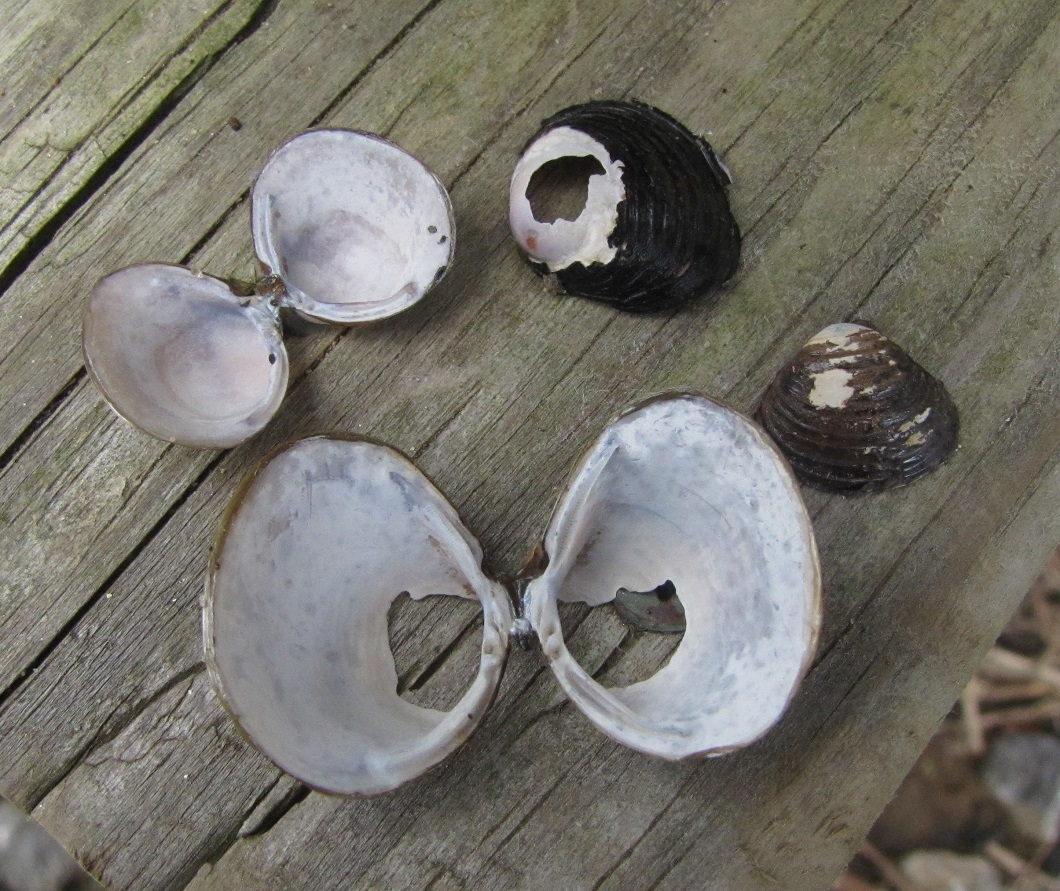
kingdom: Animalia
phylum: Mollusca
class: Bivalvia
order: Venerida
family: Cyrenidae
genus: Corbicula
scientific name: Corbicula fluminea
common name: Asian clam
